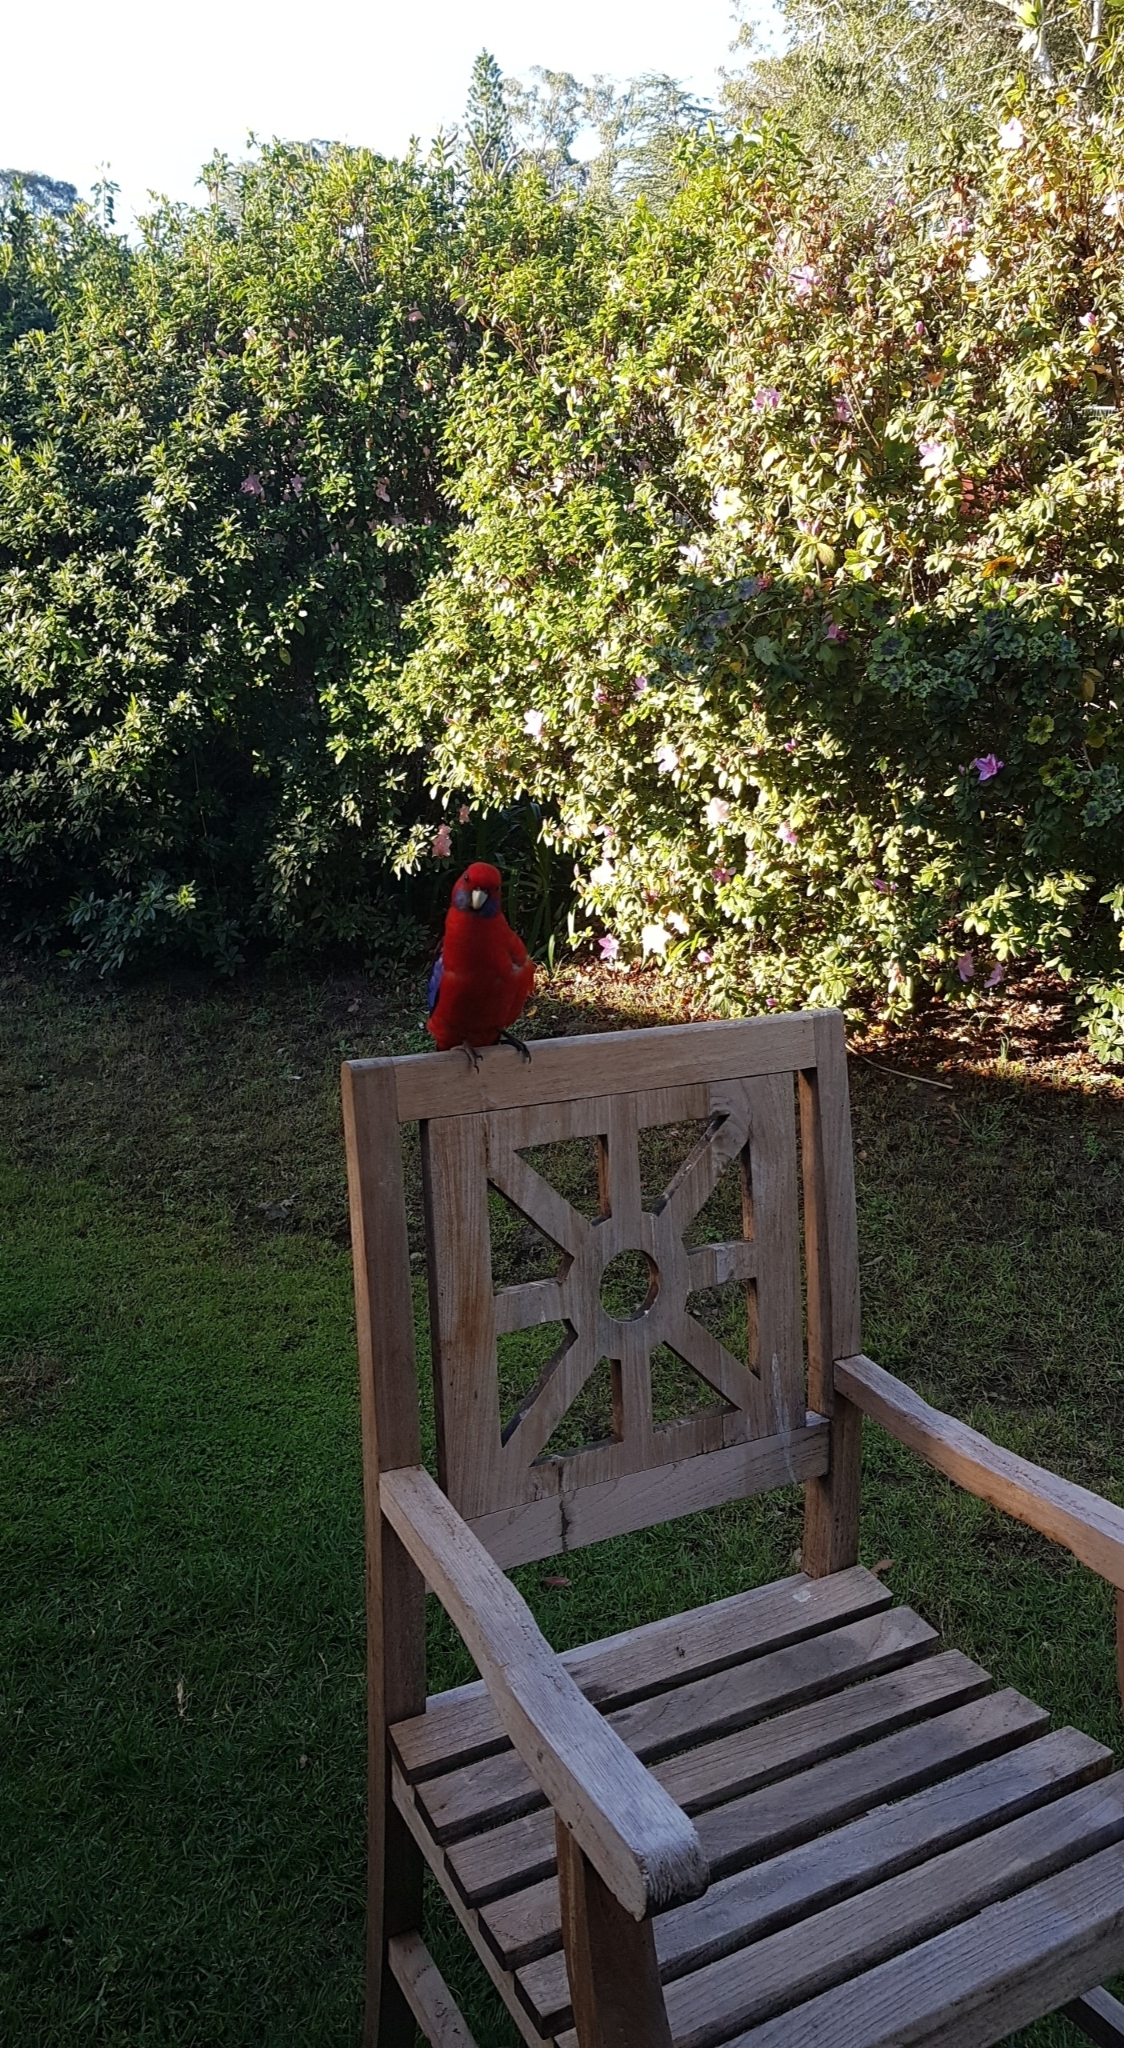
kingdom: Animalia
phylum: Chordata
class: Aves
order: Psittaciformes
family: Psittacidae
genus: Platycercus
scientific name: Platycercus elegans
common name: Crimson rosella
